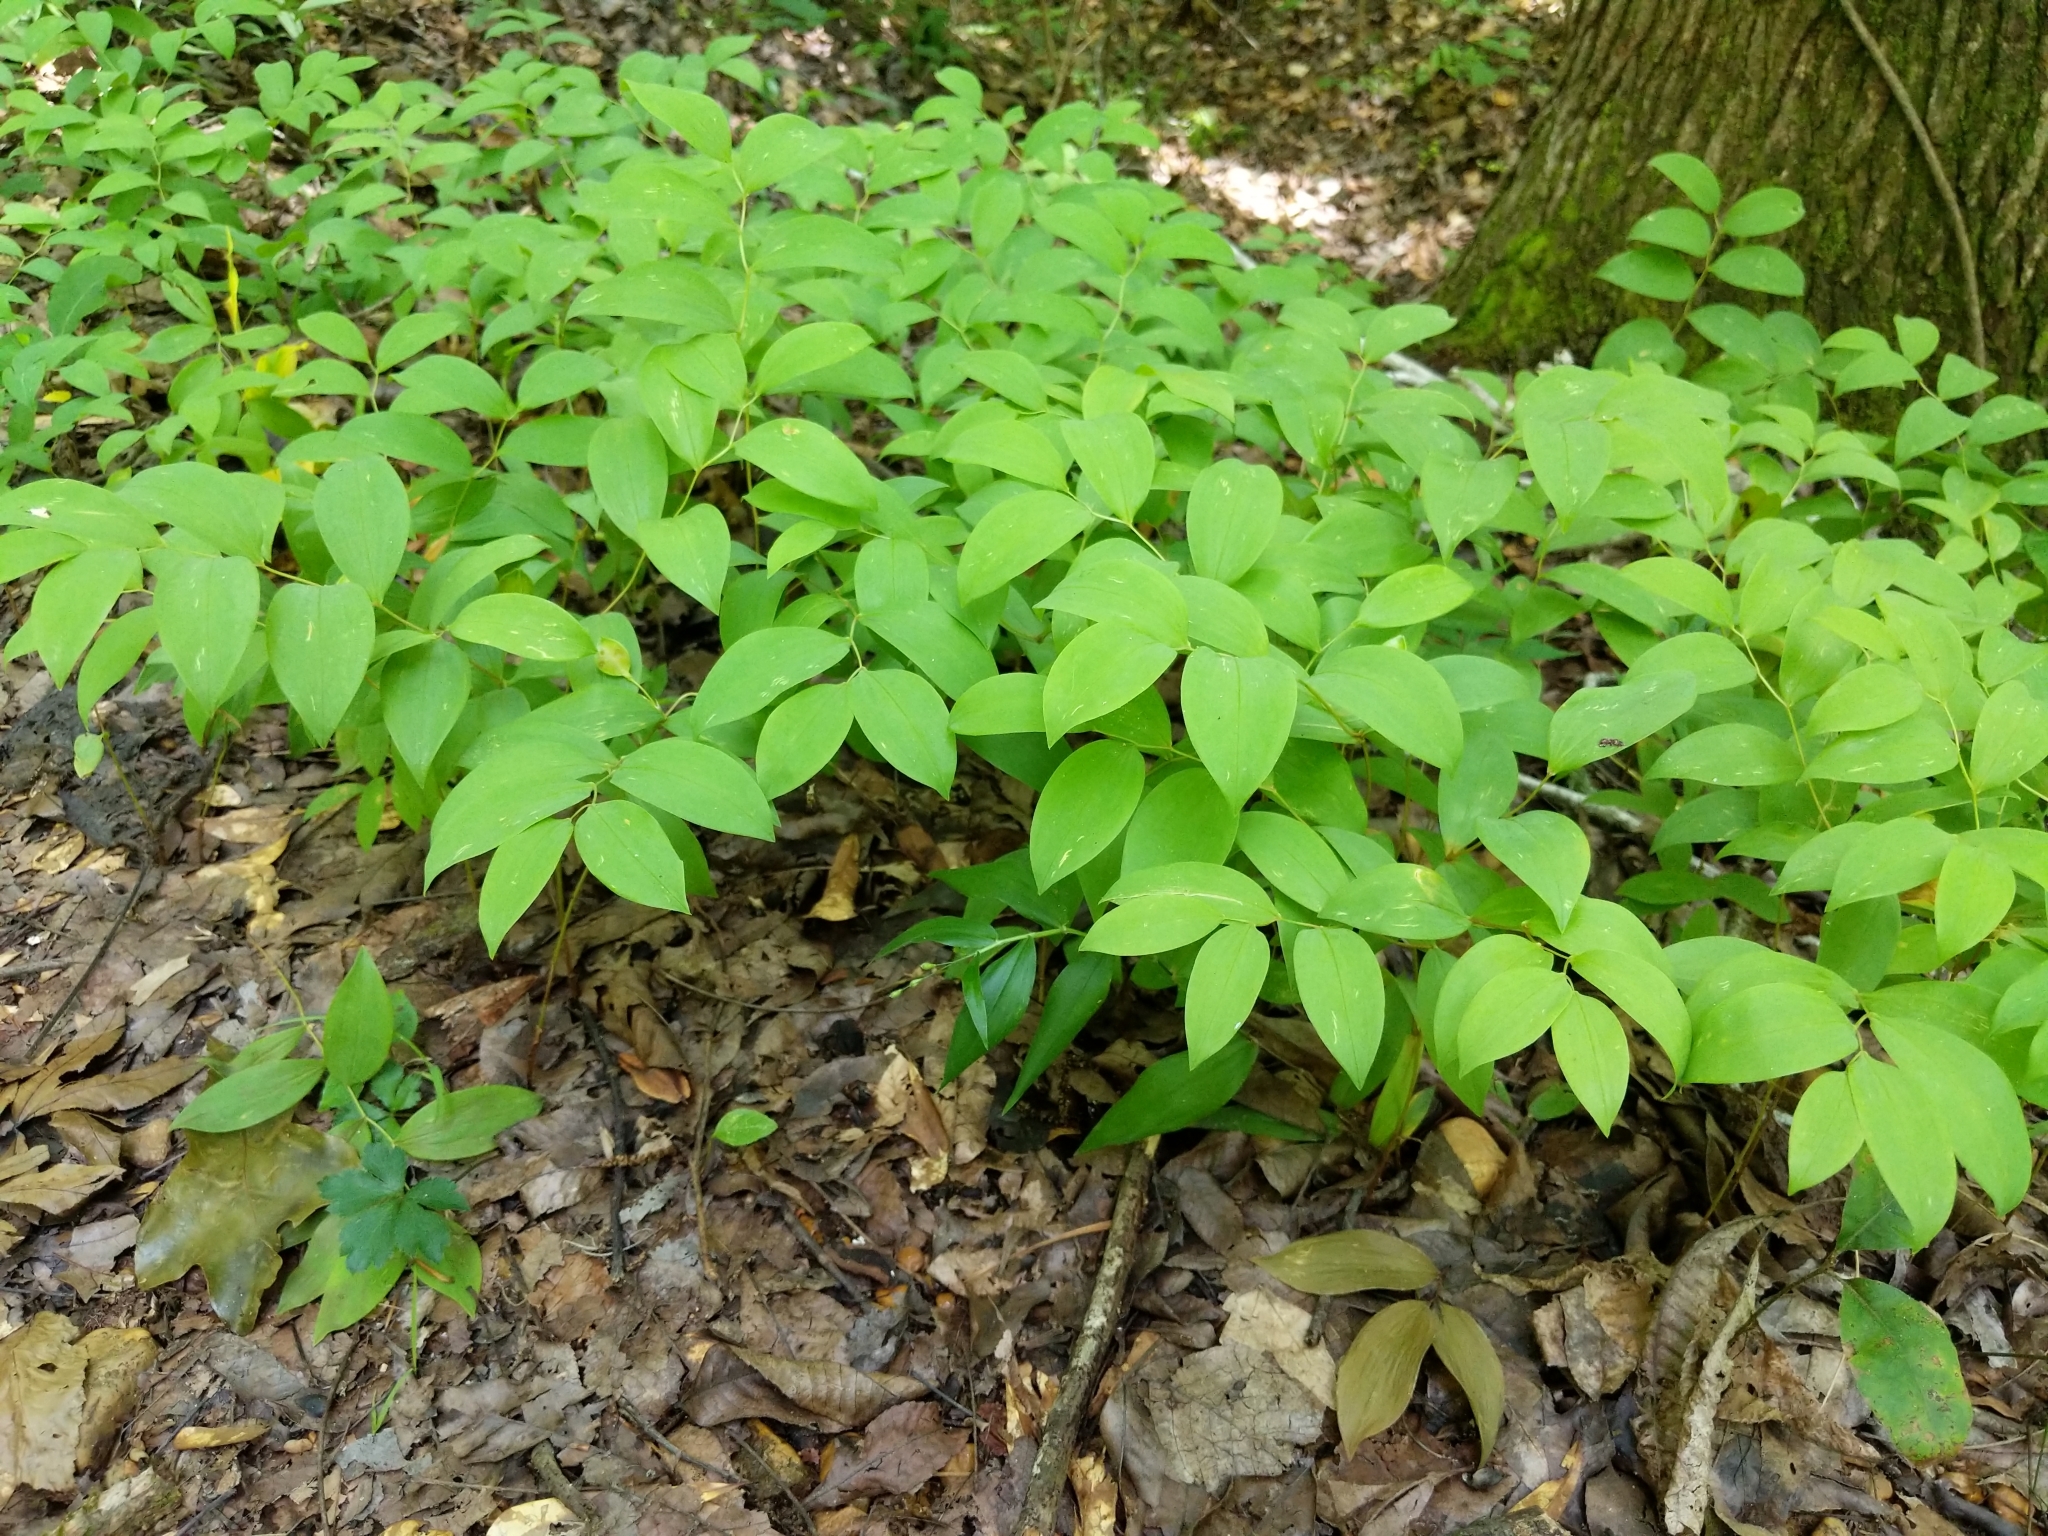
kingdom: Plantae
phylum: Tracheophyta
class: Liliopsida
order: Liliales
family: Colchicaceae
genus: Uvularia
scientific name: Uvularia sessilifolia
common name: Straw-lily
